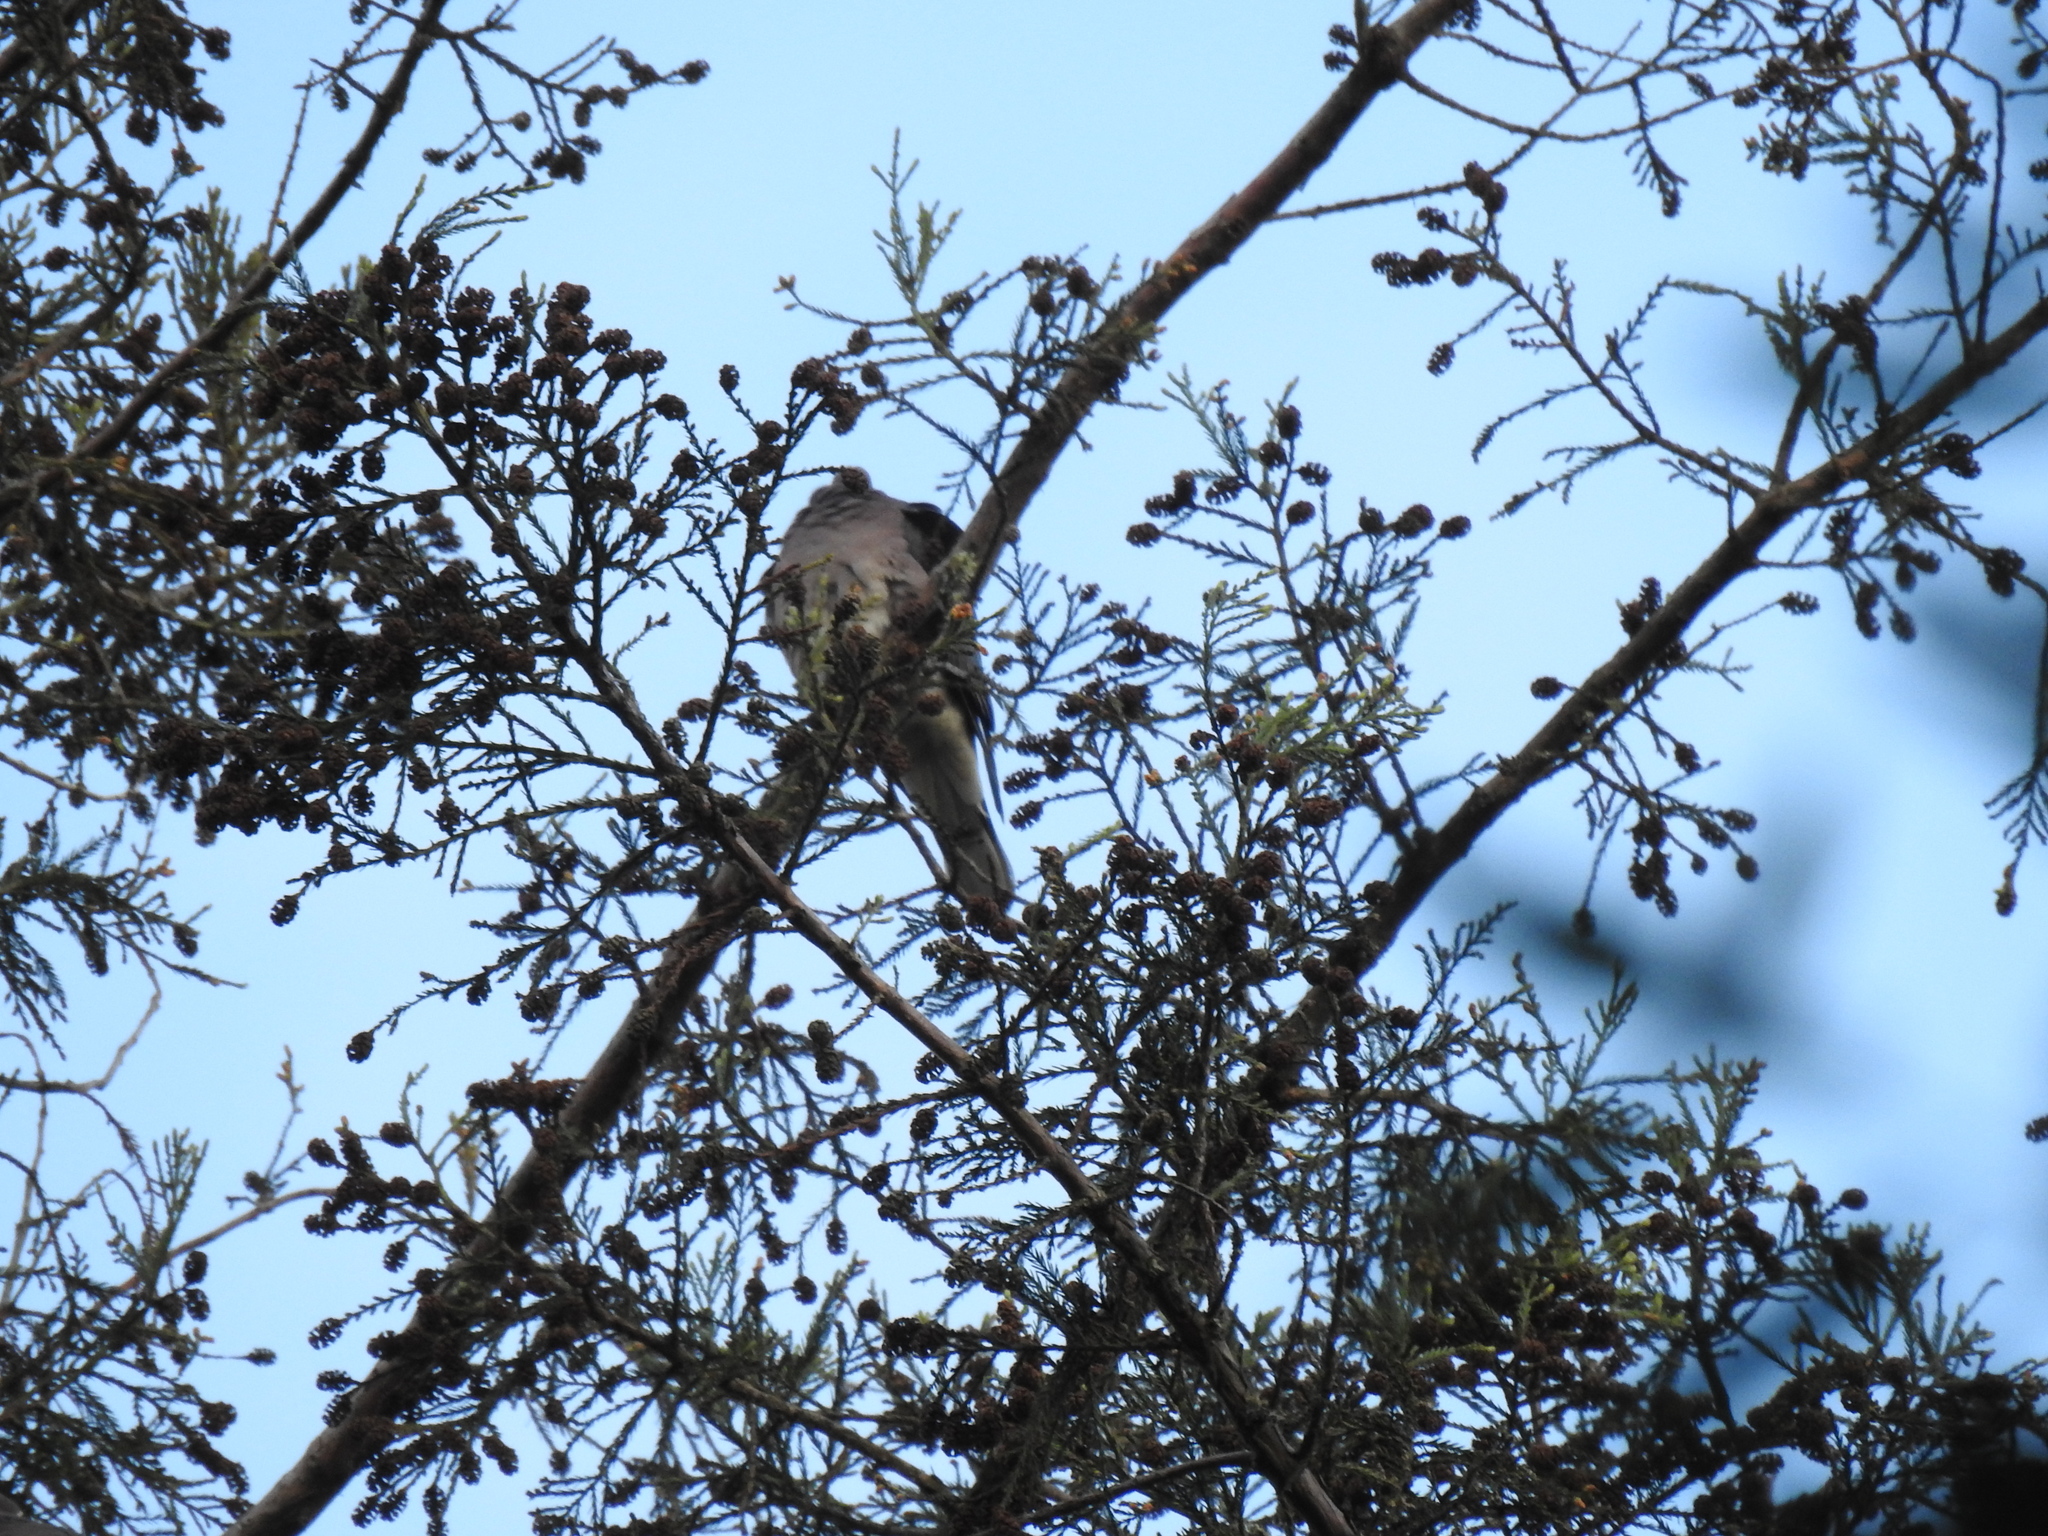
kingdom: Animalia
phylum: Chordata
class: Aves
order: Columbiformes
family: Columbidae
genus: Patagioenas
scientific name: Patagioenas fasciata
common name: Band-tailed pigeon
